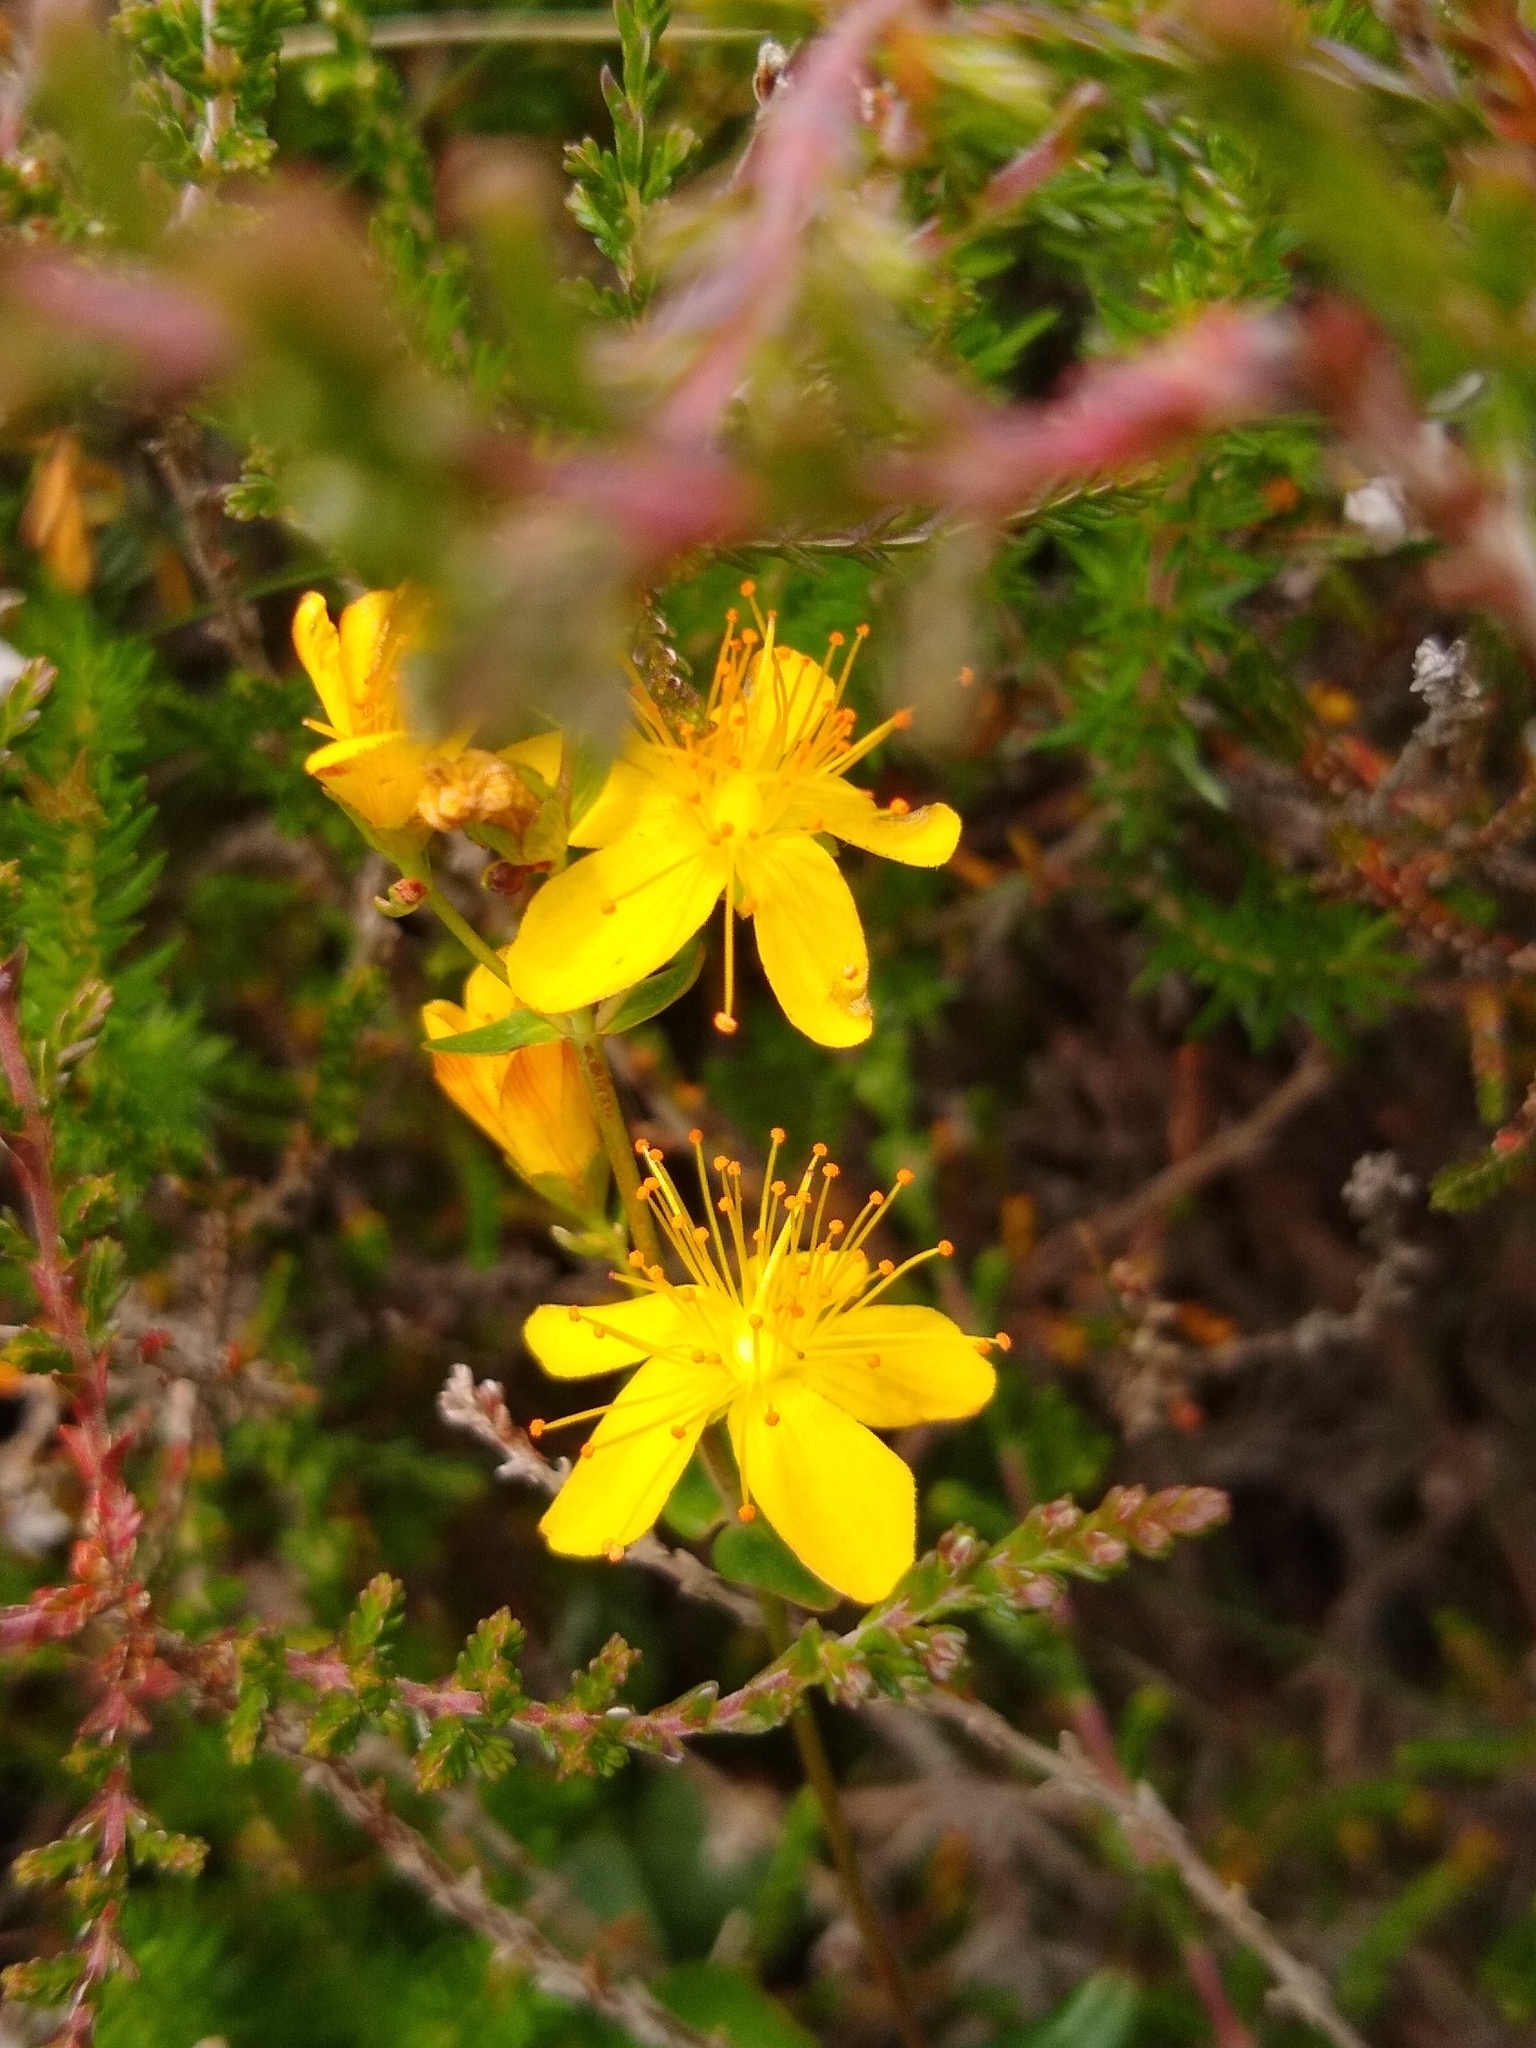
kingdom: Plantae
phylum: Tracheophyta
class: Magnoliopsida
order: Malpighiales
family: Hypericaceae
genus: Hypericum
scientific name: Hypericum pulchrum
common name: Slender st. john's-wort
